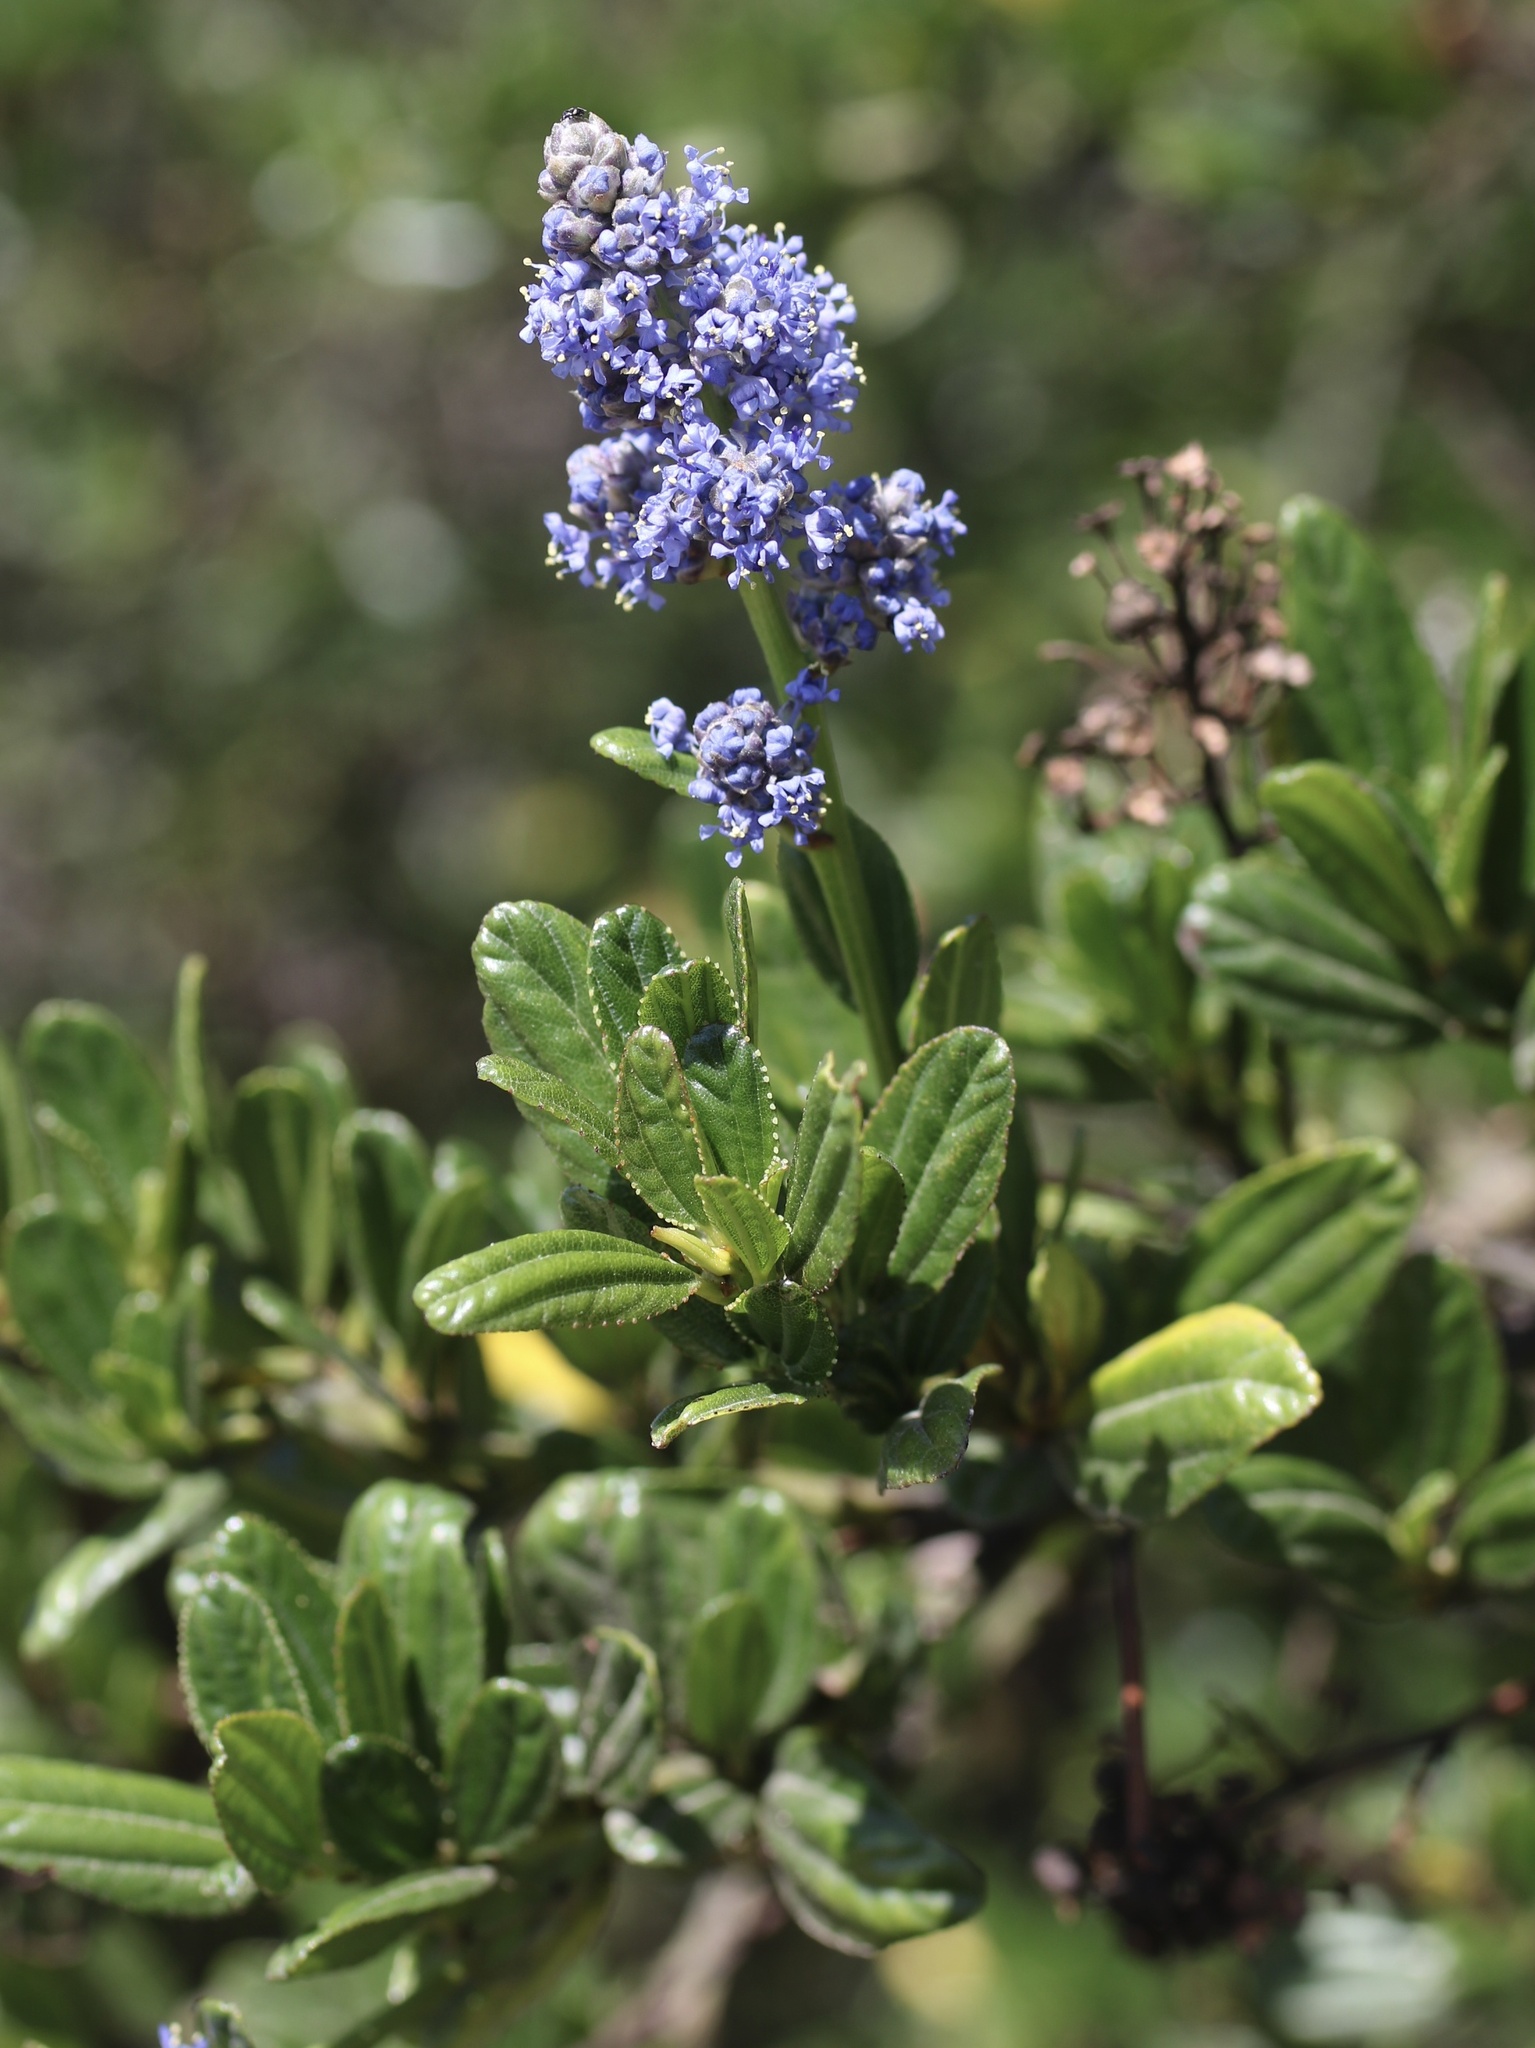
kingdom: Plantae
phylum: Tracheophyta
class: Magnoliopsida
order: Rosales
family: Rhamnaceae
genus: Ceanothus
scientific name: Ceanothus thyrsiflorus
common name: California-lilac
